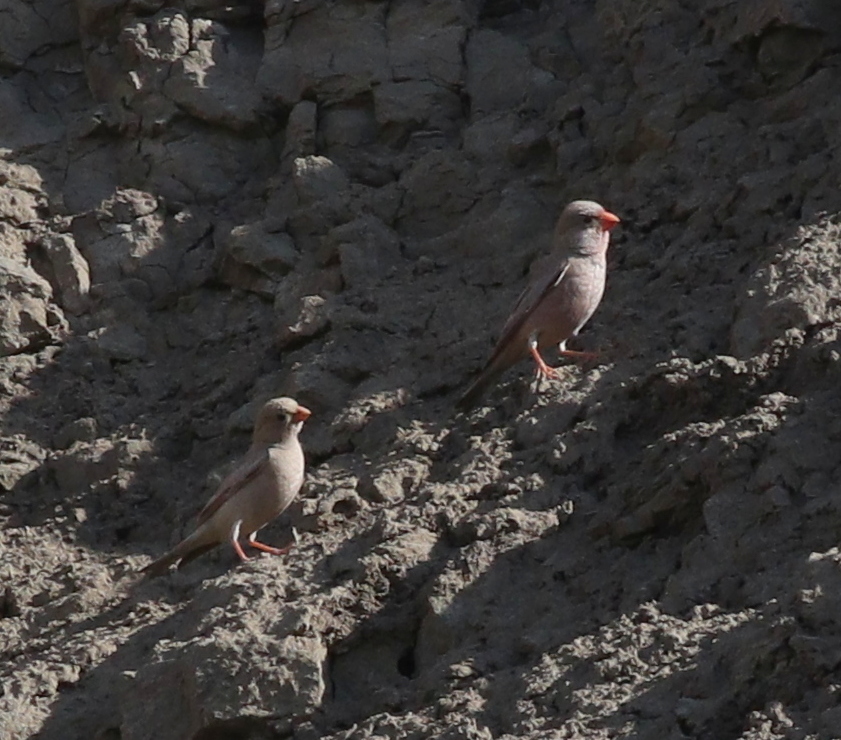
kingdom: Animalia
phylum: Chordata
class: Aves
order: Passeriformes
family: Fringillidae
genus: Bucanetes
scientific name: Bucanetes githagineus
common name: Trumpeter finch
